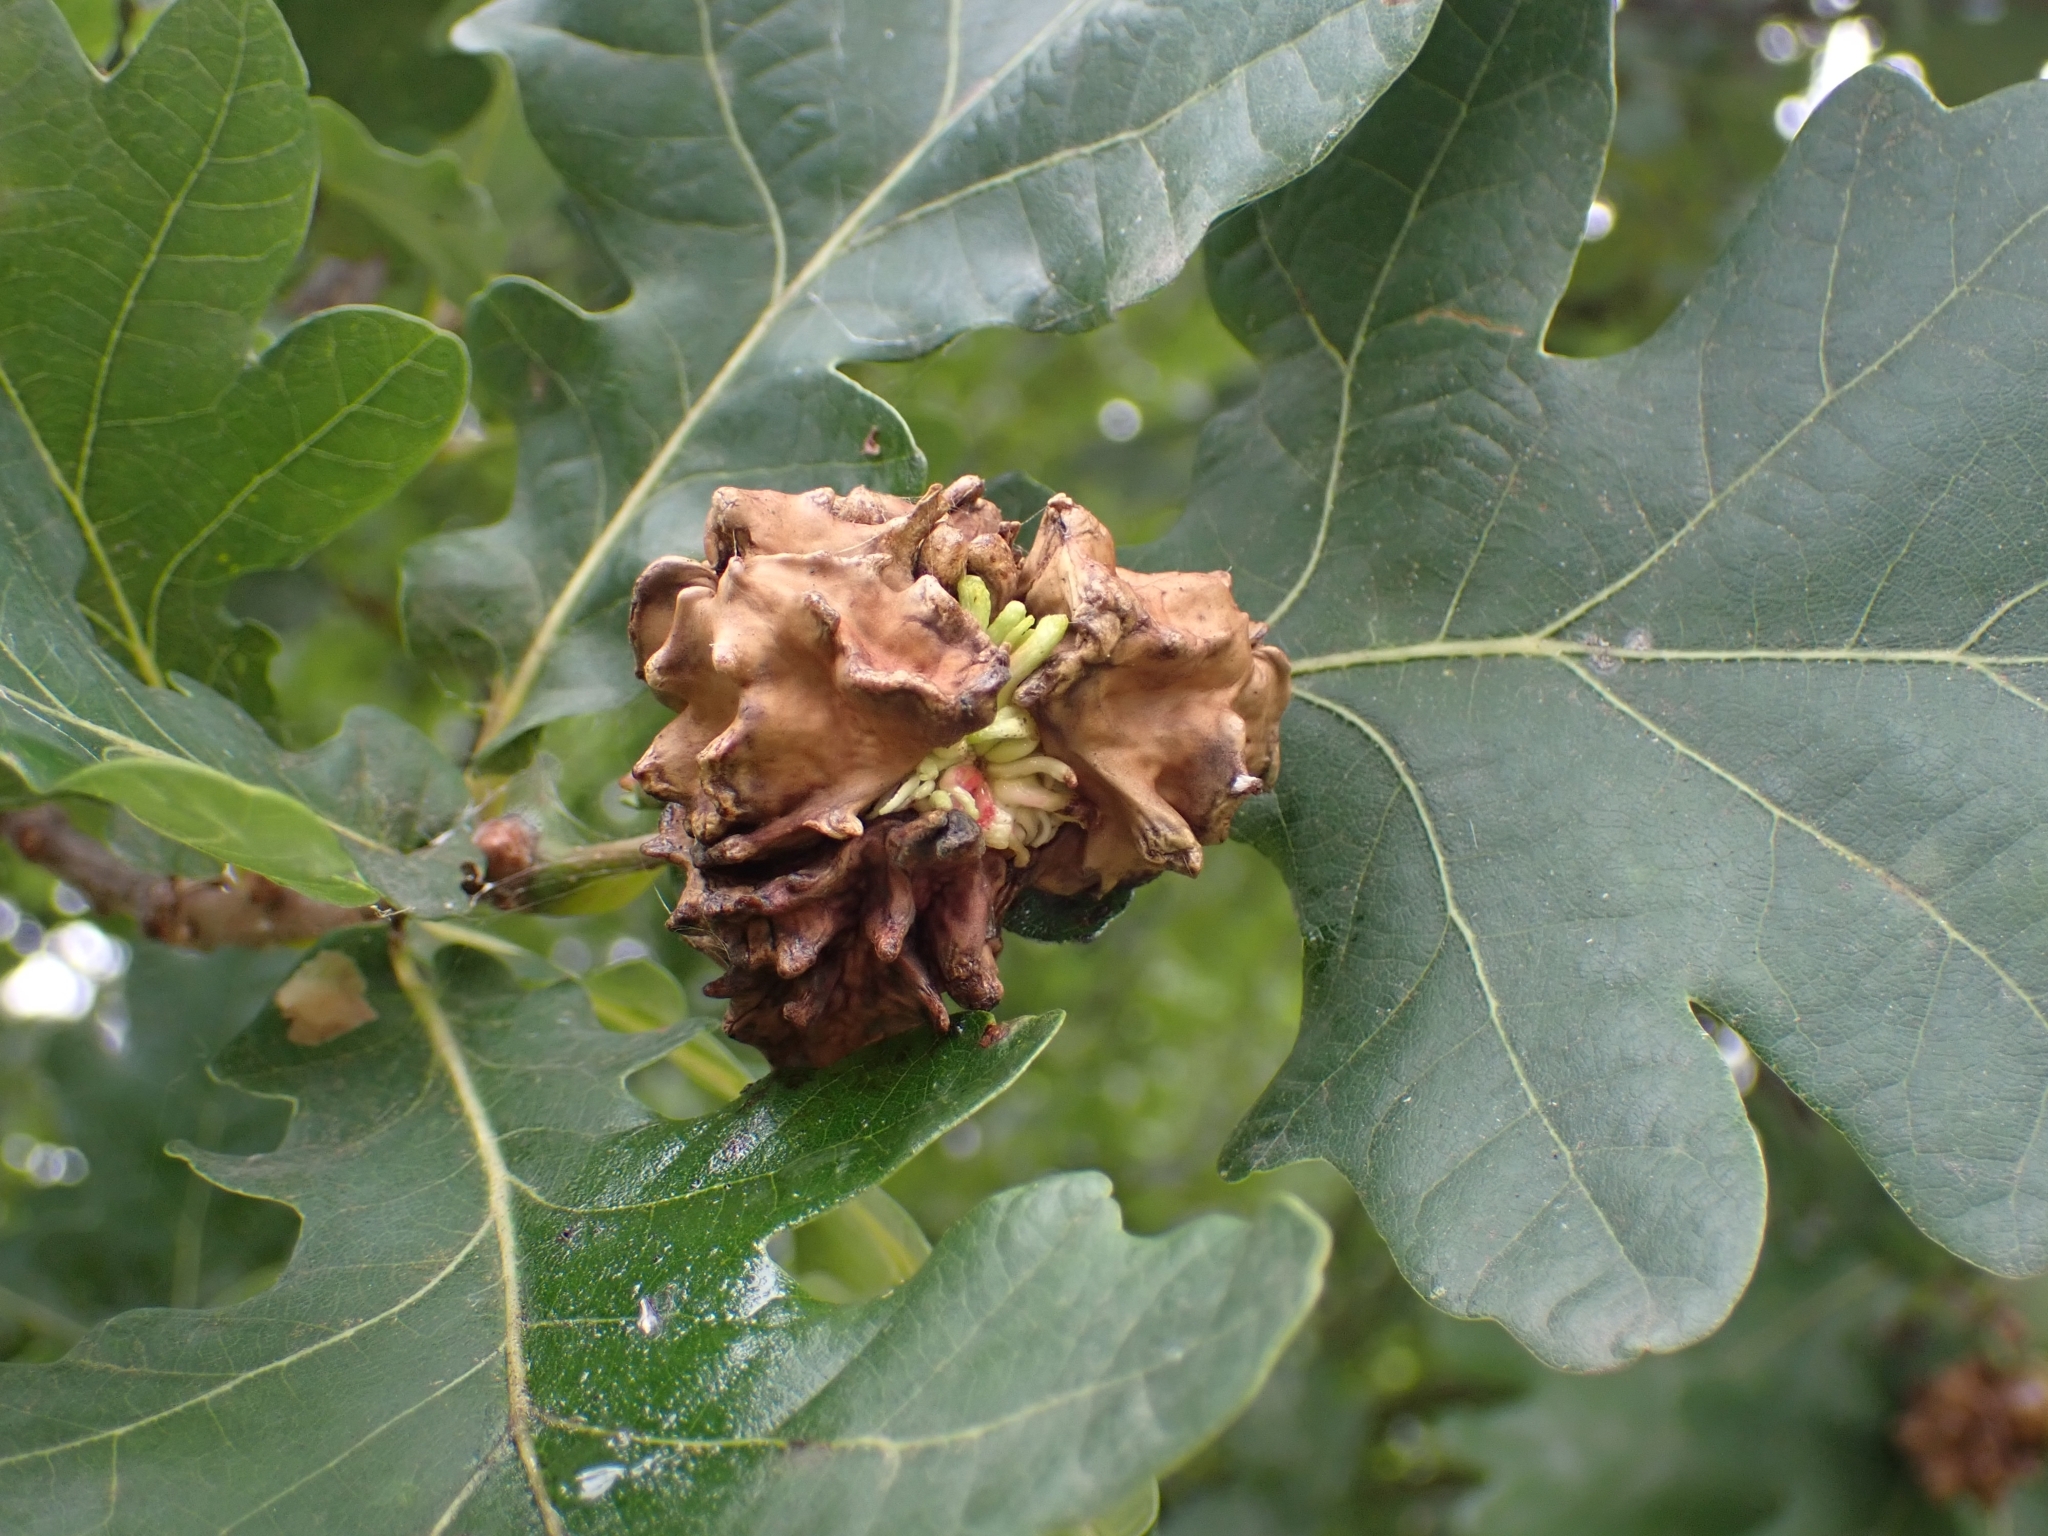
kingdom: Animalia
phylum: Arthropoda
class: Insecta
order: Hymenoptera
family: Cynipidae
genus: Andricus
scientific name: Andricus quercuscalicis
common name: Knopper gall
